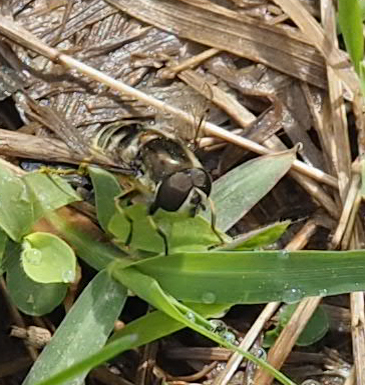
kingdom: Animalia
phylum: Arthropoda
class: Insecta
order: Diptera
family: Syrphidae
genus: Eristalis
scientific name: Eristalis dimidiata
